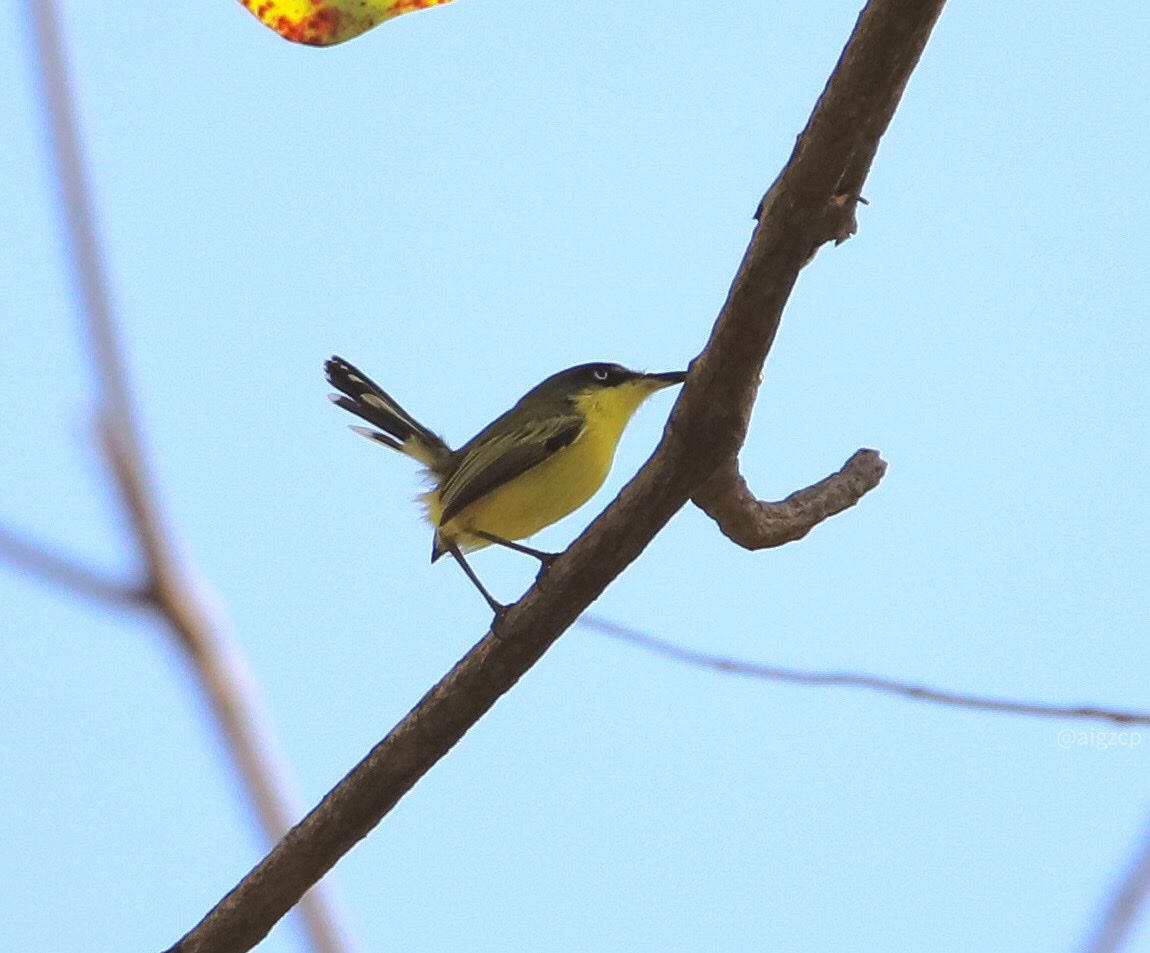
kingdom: Animalia
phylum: Chordata
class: Aves
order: Passeriformes
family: Tyrannidae
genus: Todirostrum
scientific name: Todirostrum cinereum
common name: Common tody-flycatcher
